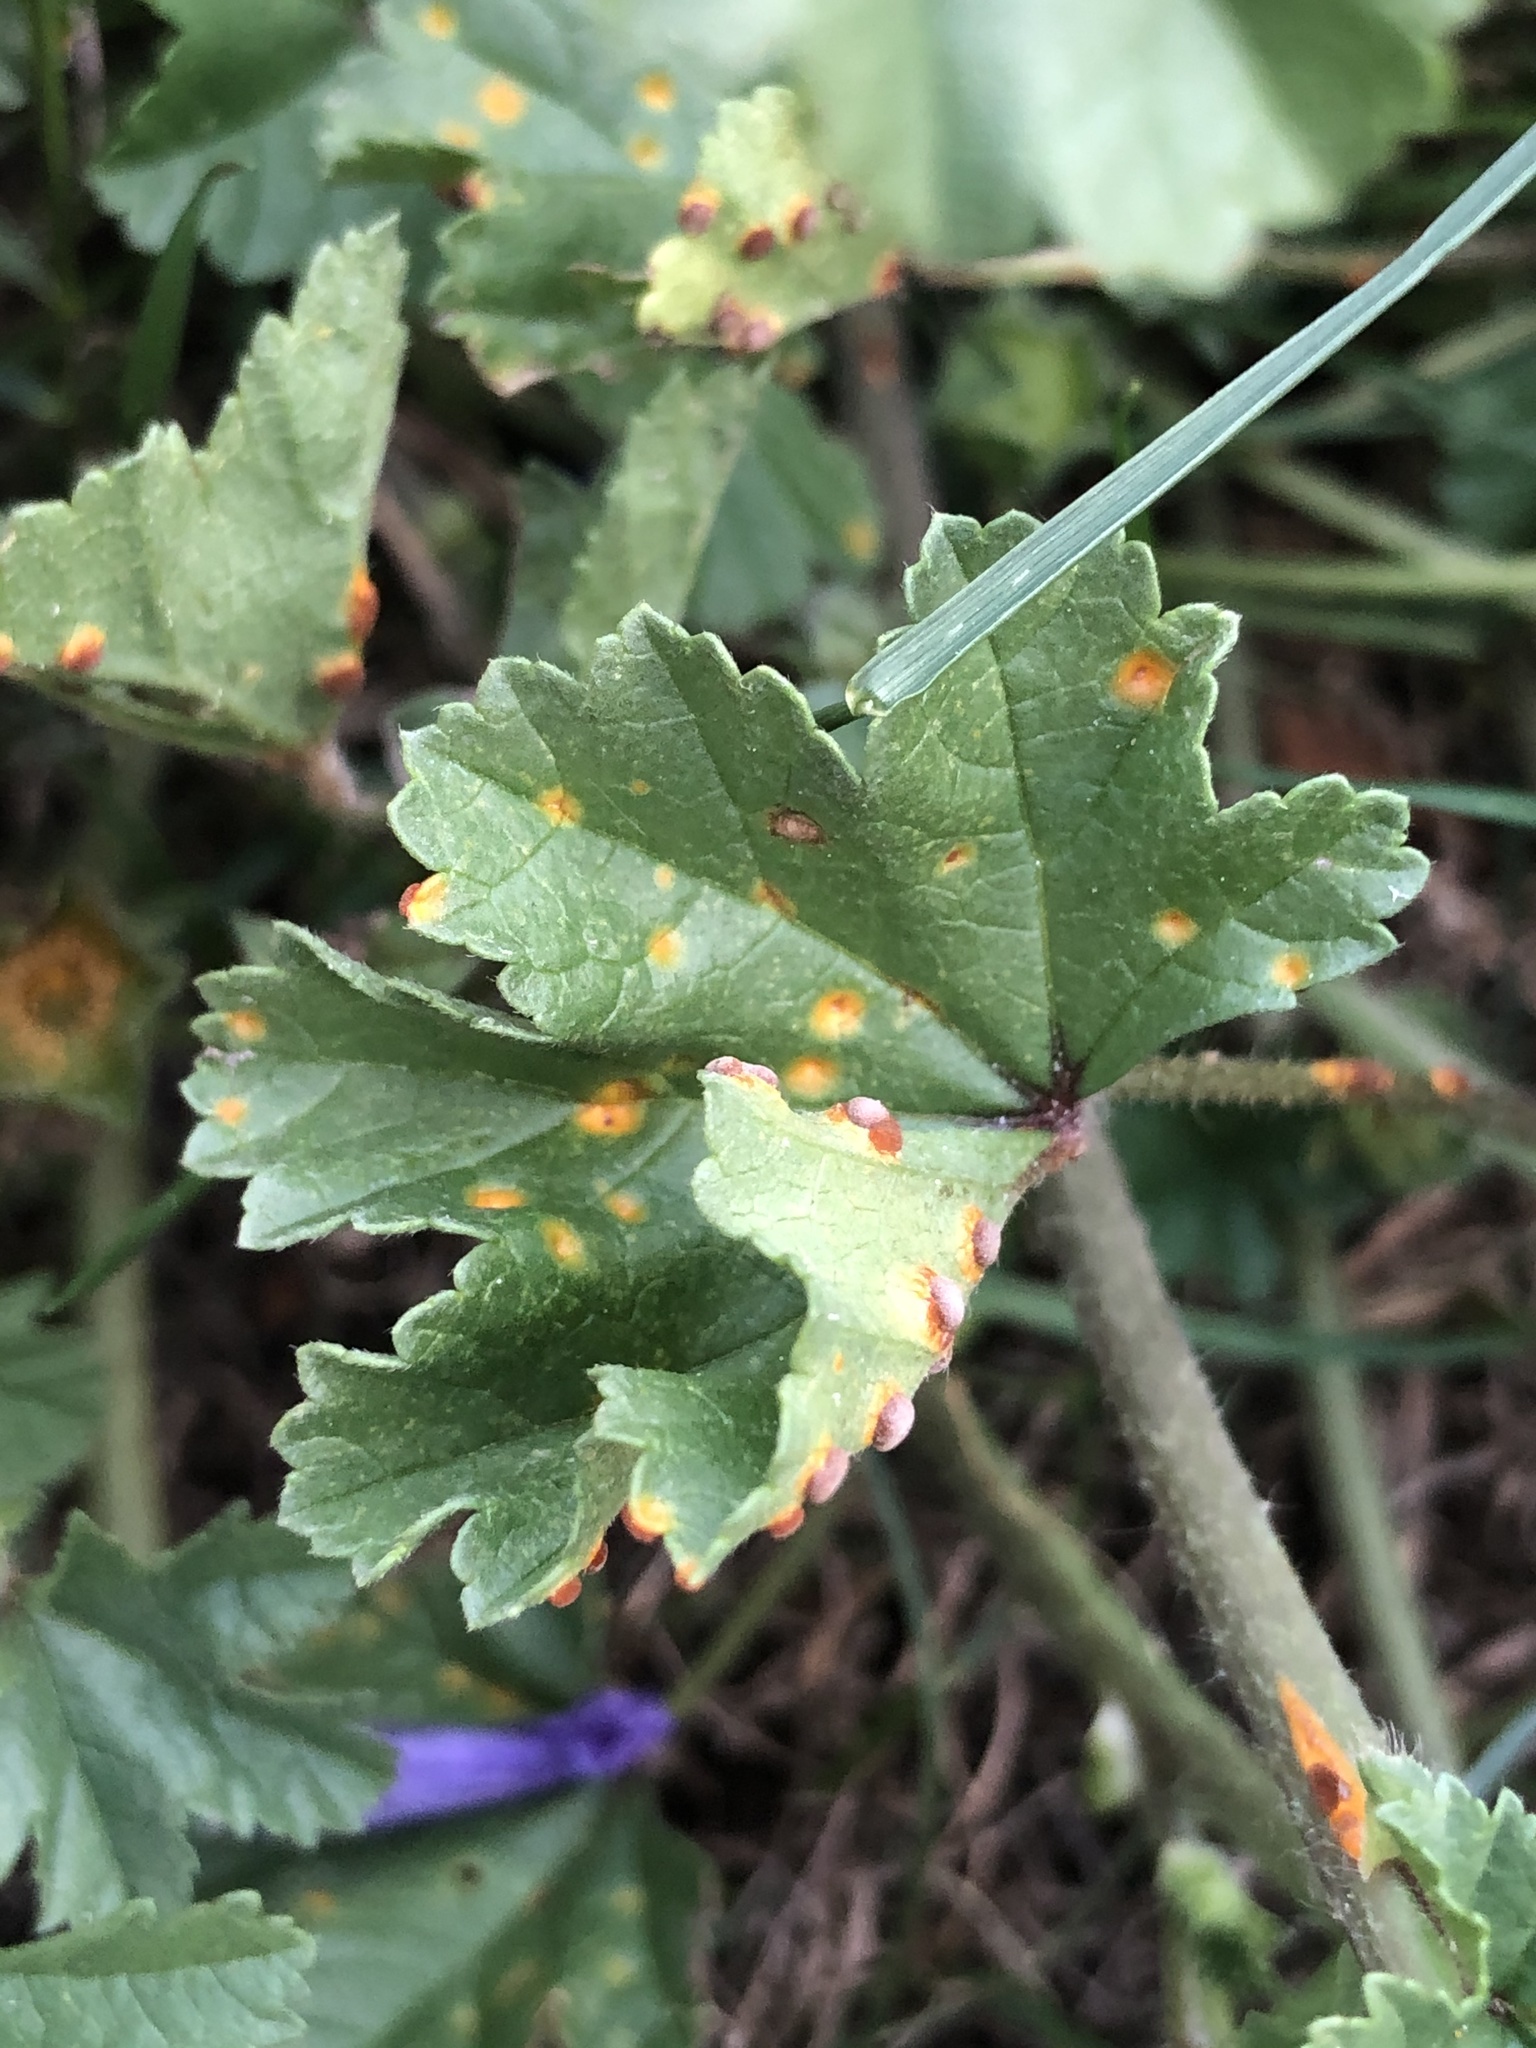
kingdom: Fungi
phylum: Basidiomycota
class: Pucciniomycetes
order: Pucciniales
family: Pucciniaceae
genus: Puccinia
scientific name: Puccinia malvacearum
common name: Hollyhock rust
